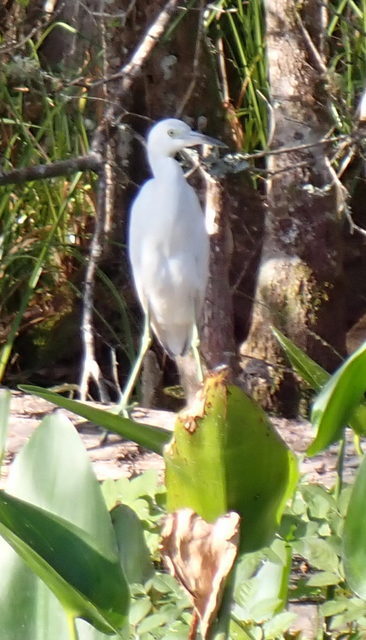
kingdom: Animalia
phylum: Chordata
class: Aves
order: Pelecaniformes
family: Ardeidae
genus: Egretta
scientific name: Egretta caerulea
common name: Little blue heron
